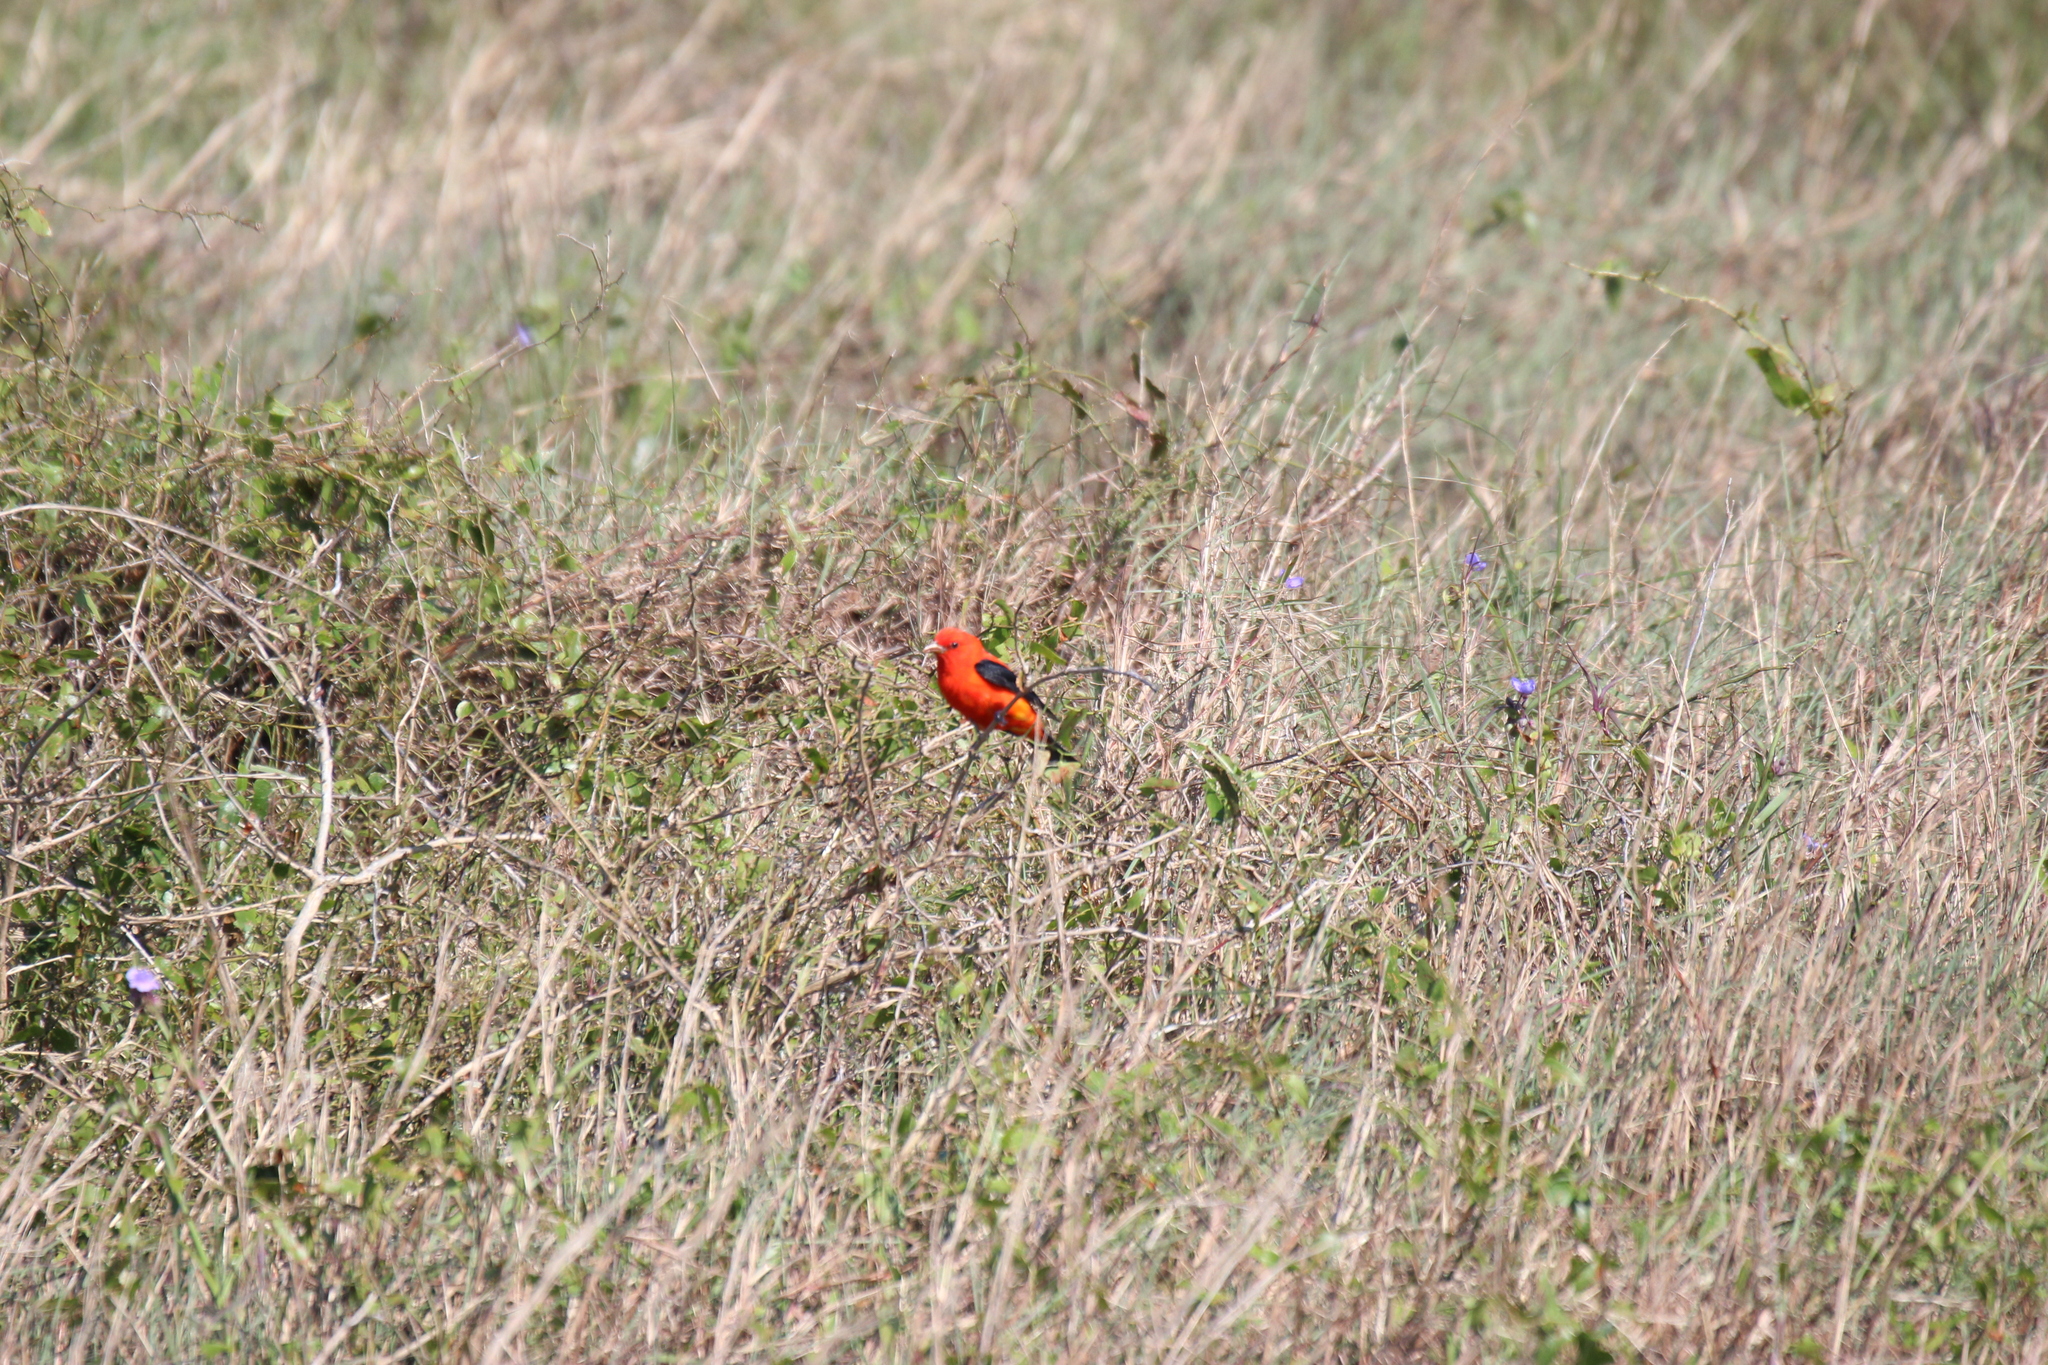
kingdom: Animalia
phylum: Chordata
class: Aves
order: Passeriformes
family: Cardinalidae
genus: Piranga
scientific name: Piranga olivacea
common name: Scarlet tanager
